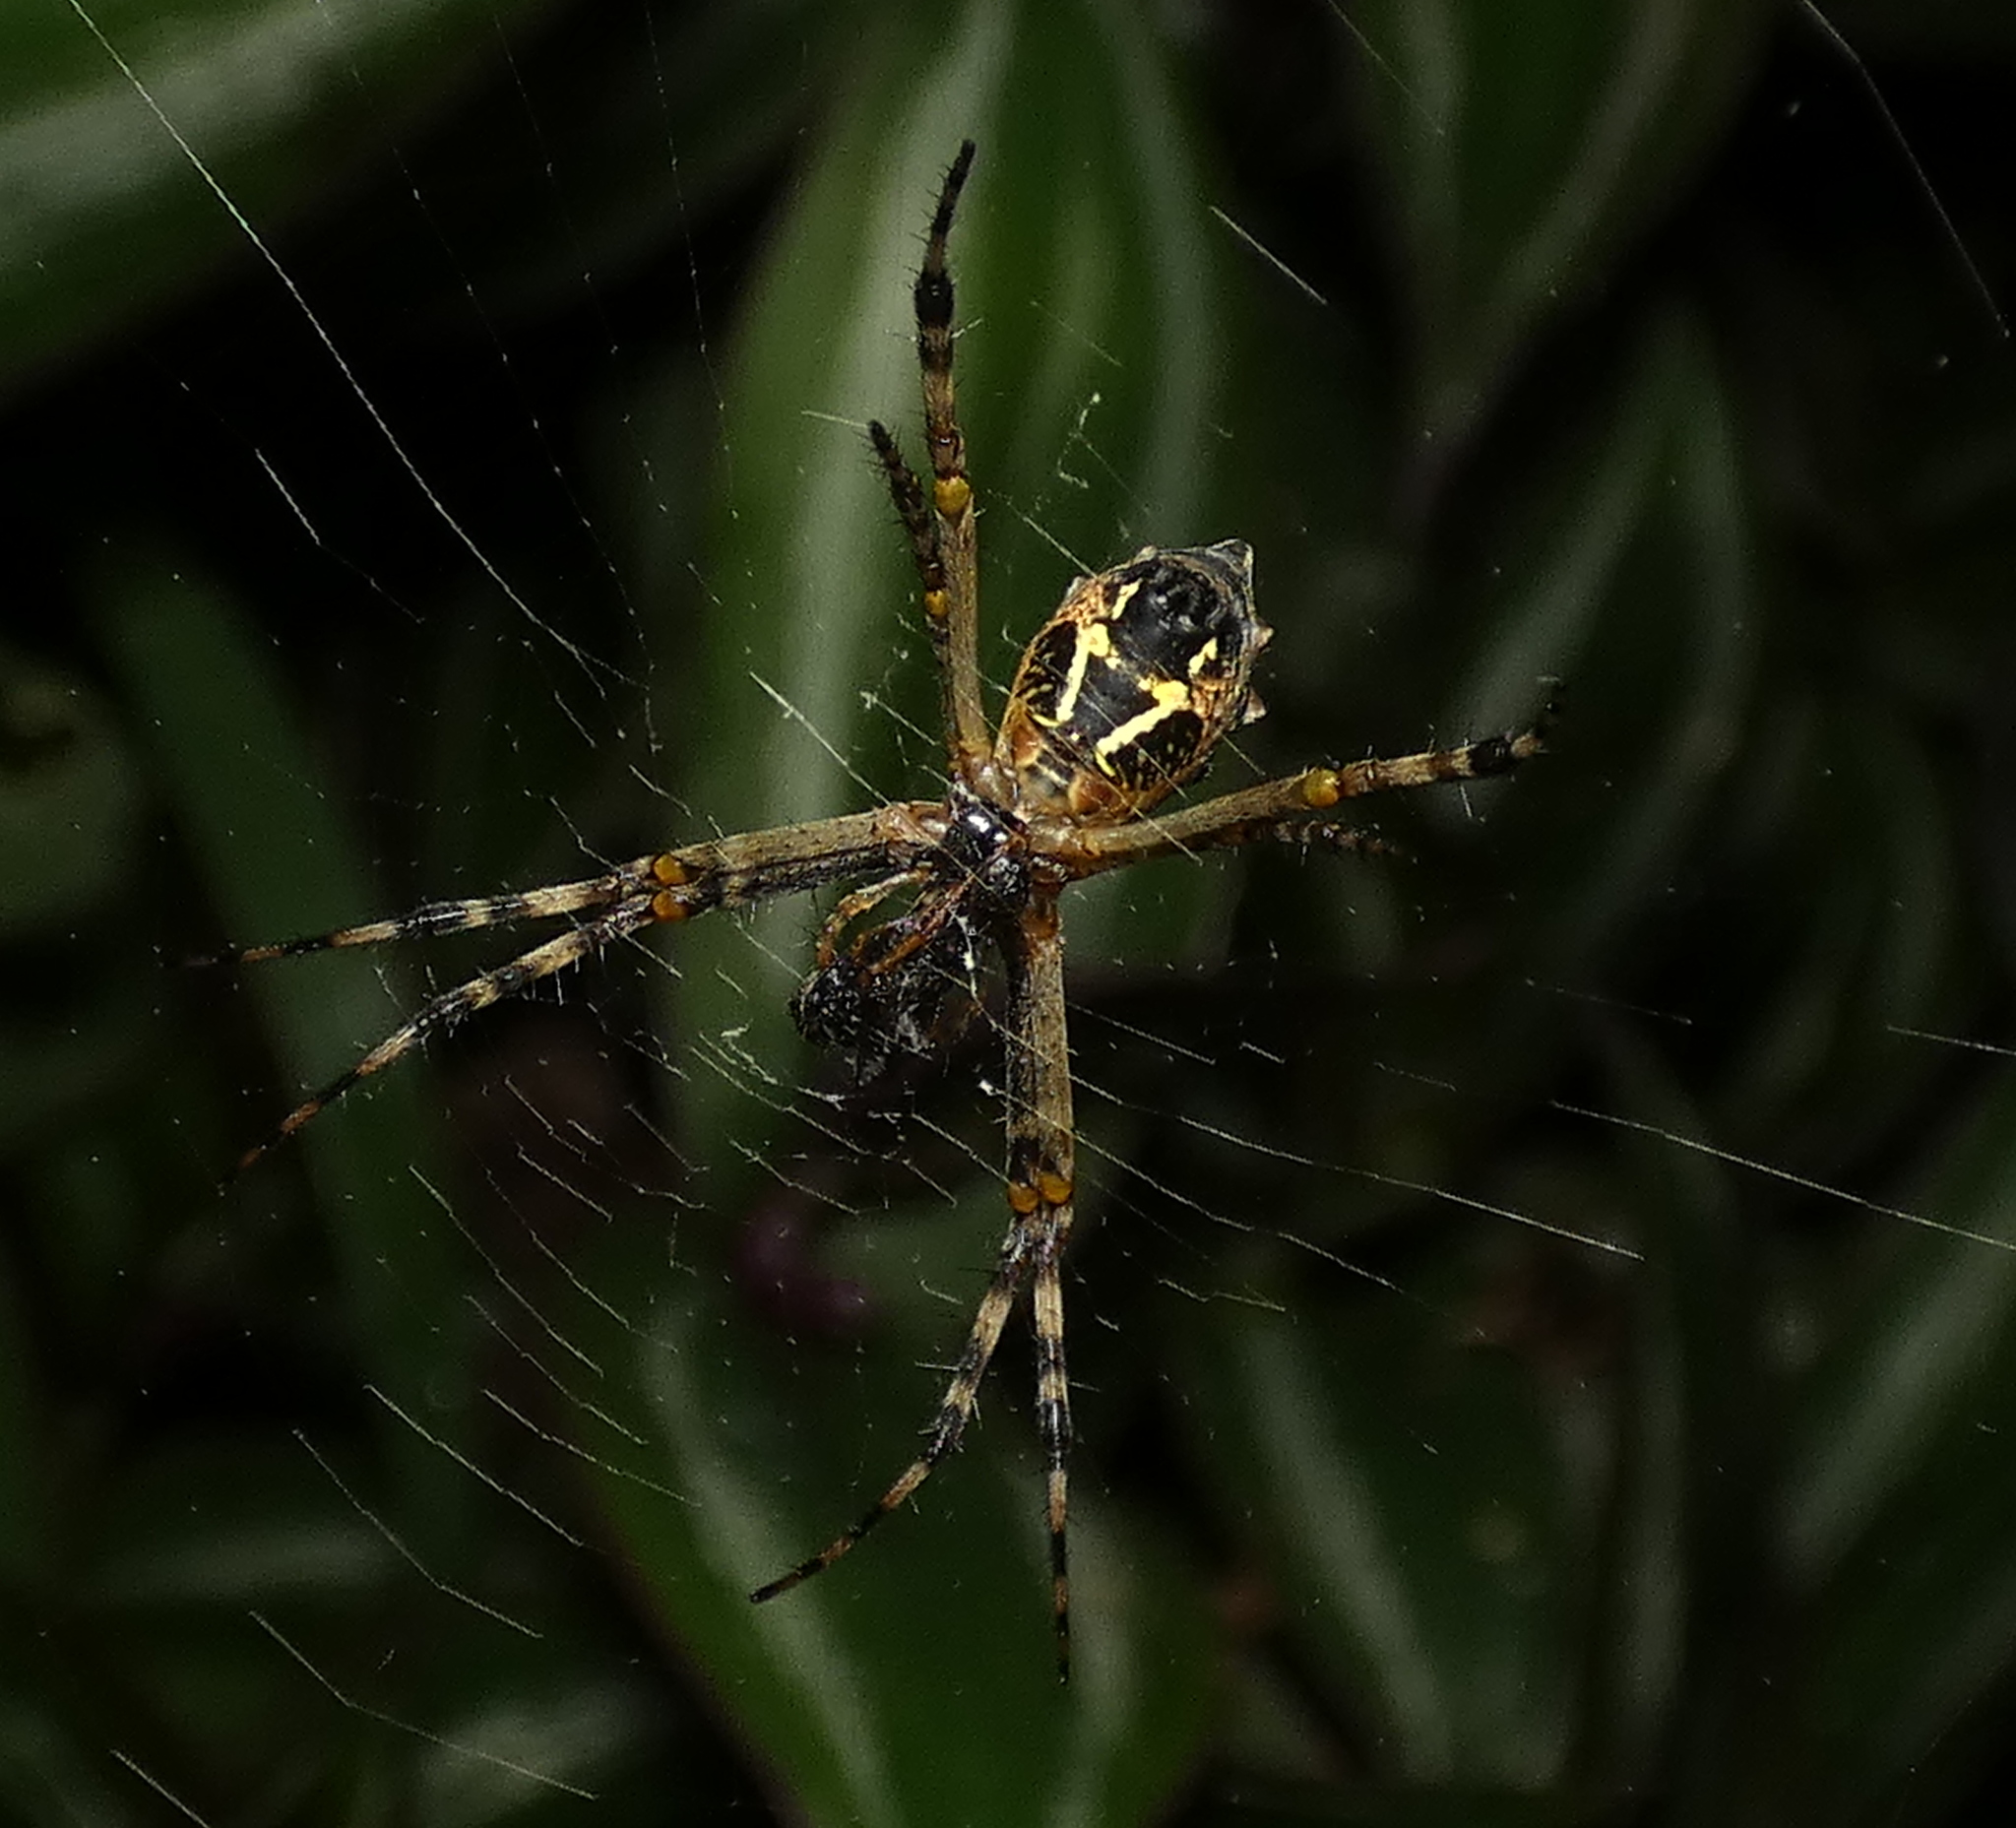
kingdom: Animalia
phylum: Arthropoda
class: Arachnida
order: Araneae
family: Araneidae
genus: Argiope
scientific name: Argiope argentata
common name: Orb weavers
